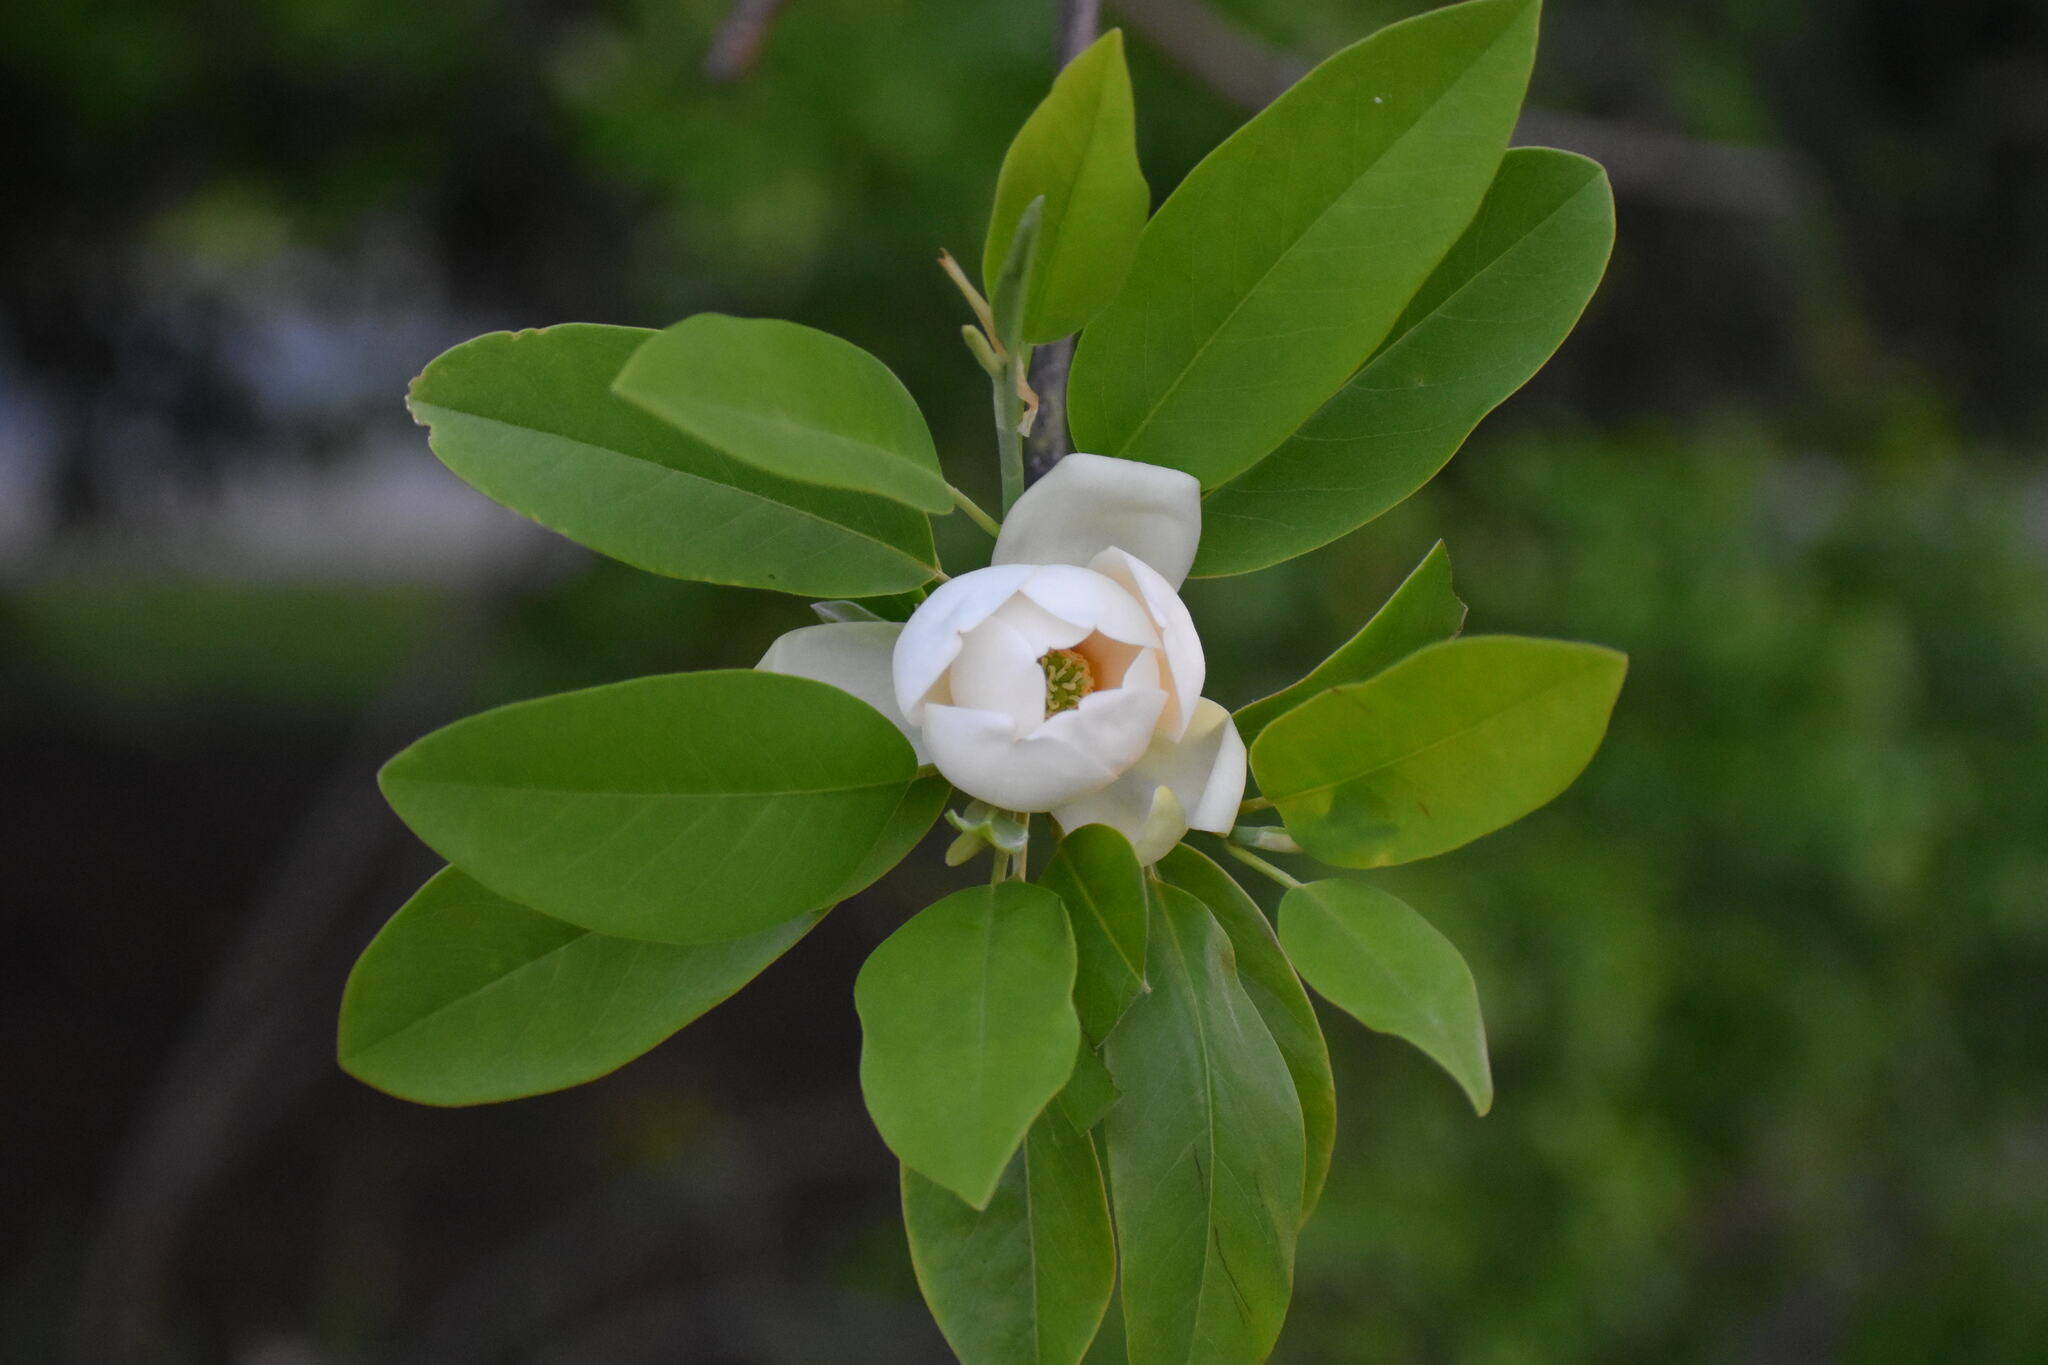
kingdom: Plantae
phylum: Tracheophyta
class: Magnoliopsida
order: Magnoliales
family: Magnoliaceae
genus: Magnolia
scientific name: Magnolia virginiana
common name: Swamp bay
